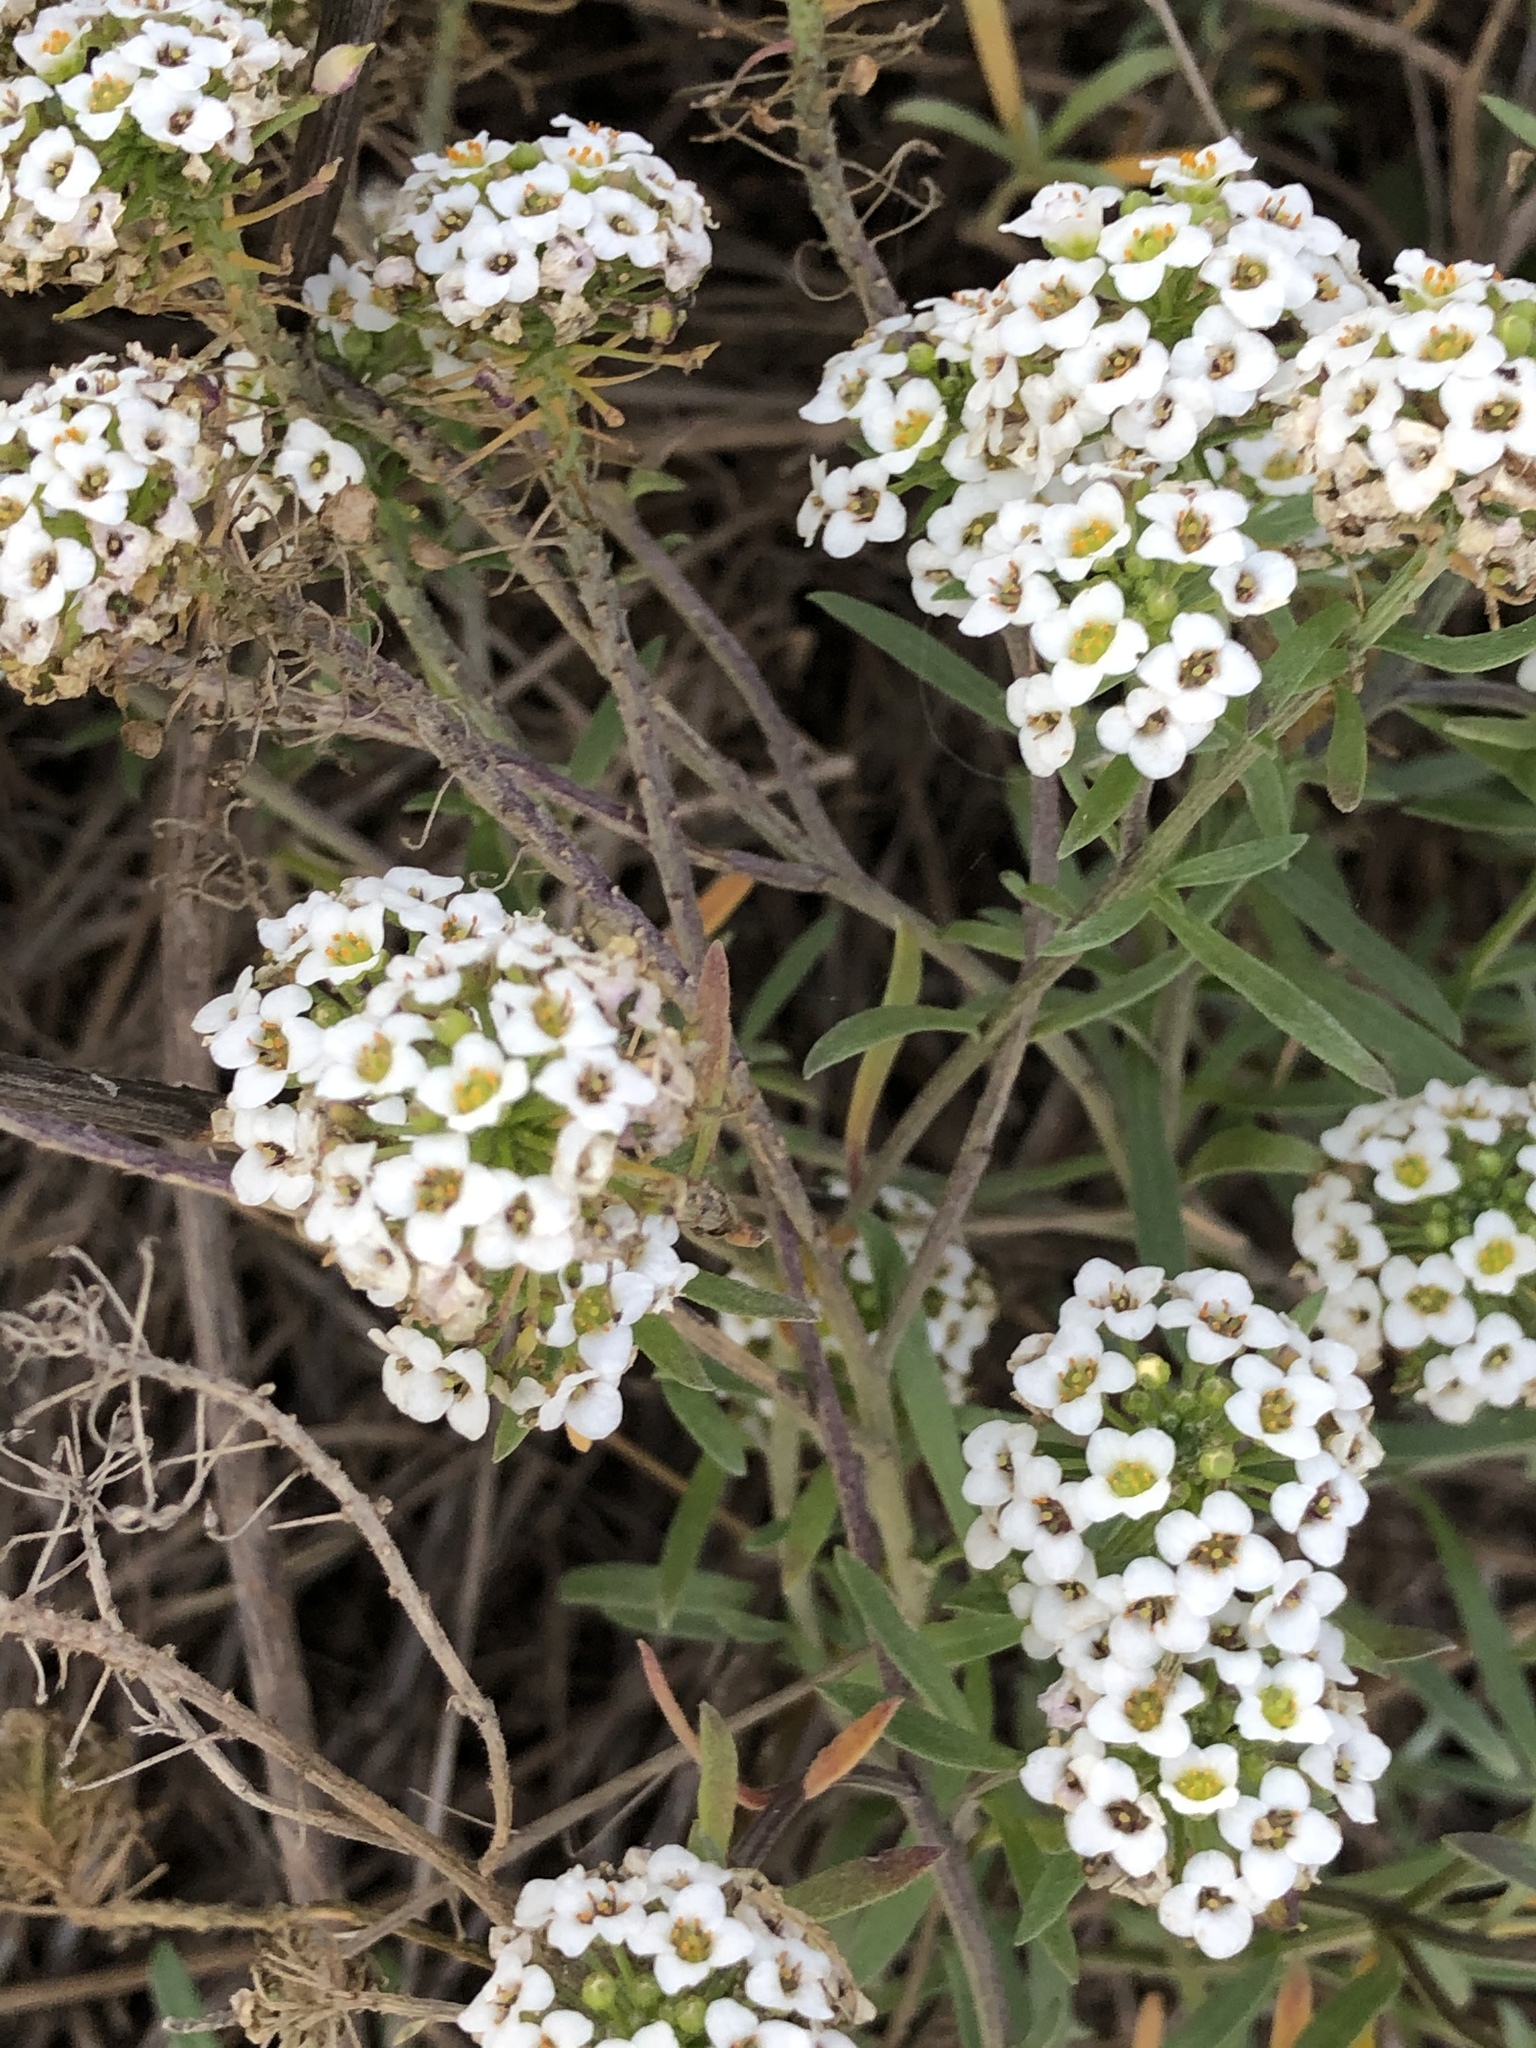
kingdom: Plantae
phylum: Tracheophyta
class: Magnoliopsida
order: Brassicales
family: Brassicaceae
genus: Lobularia
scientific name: Lobularia maritima
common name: Sweet alison
